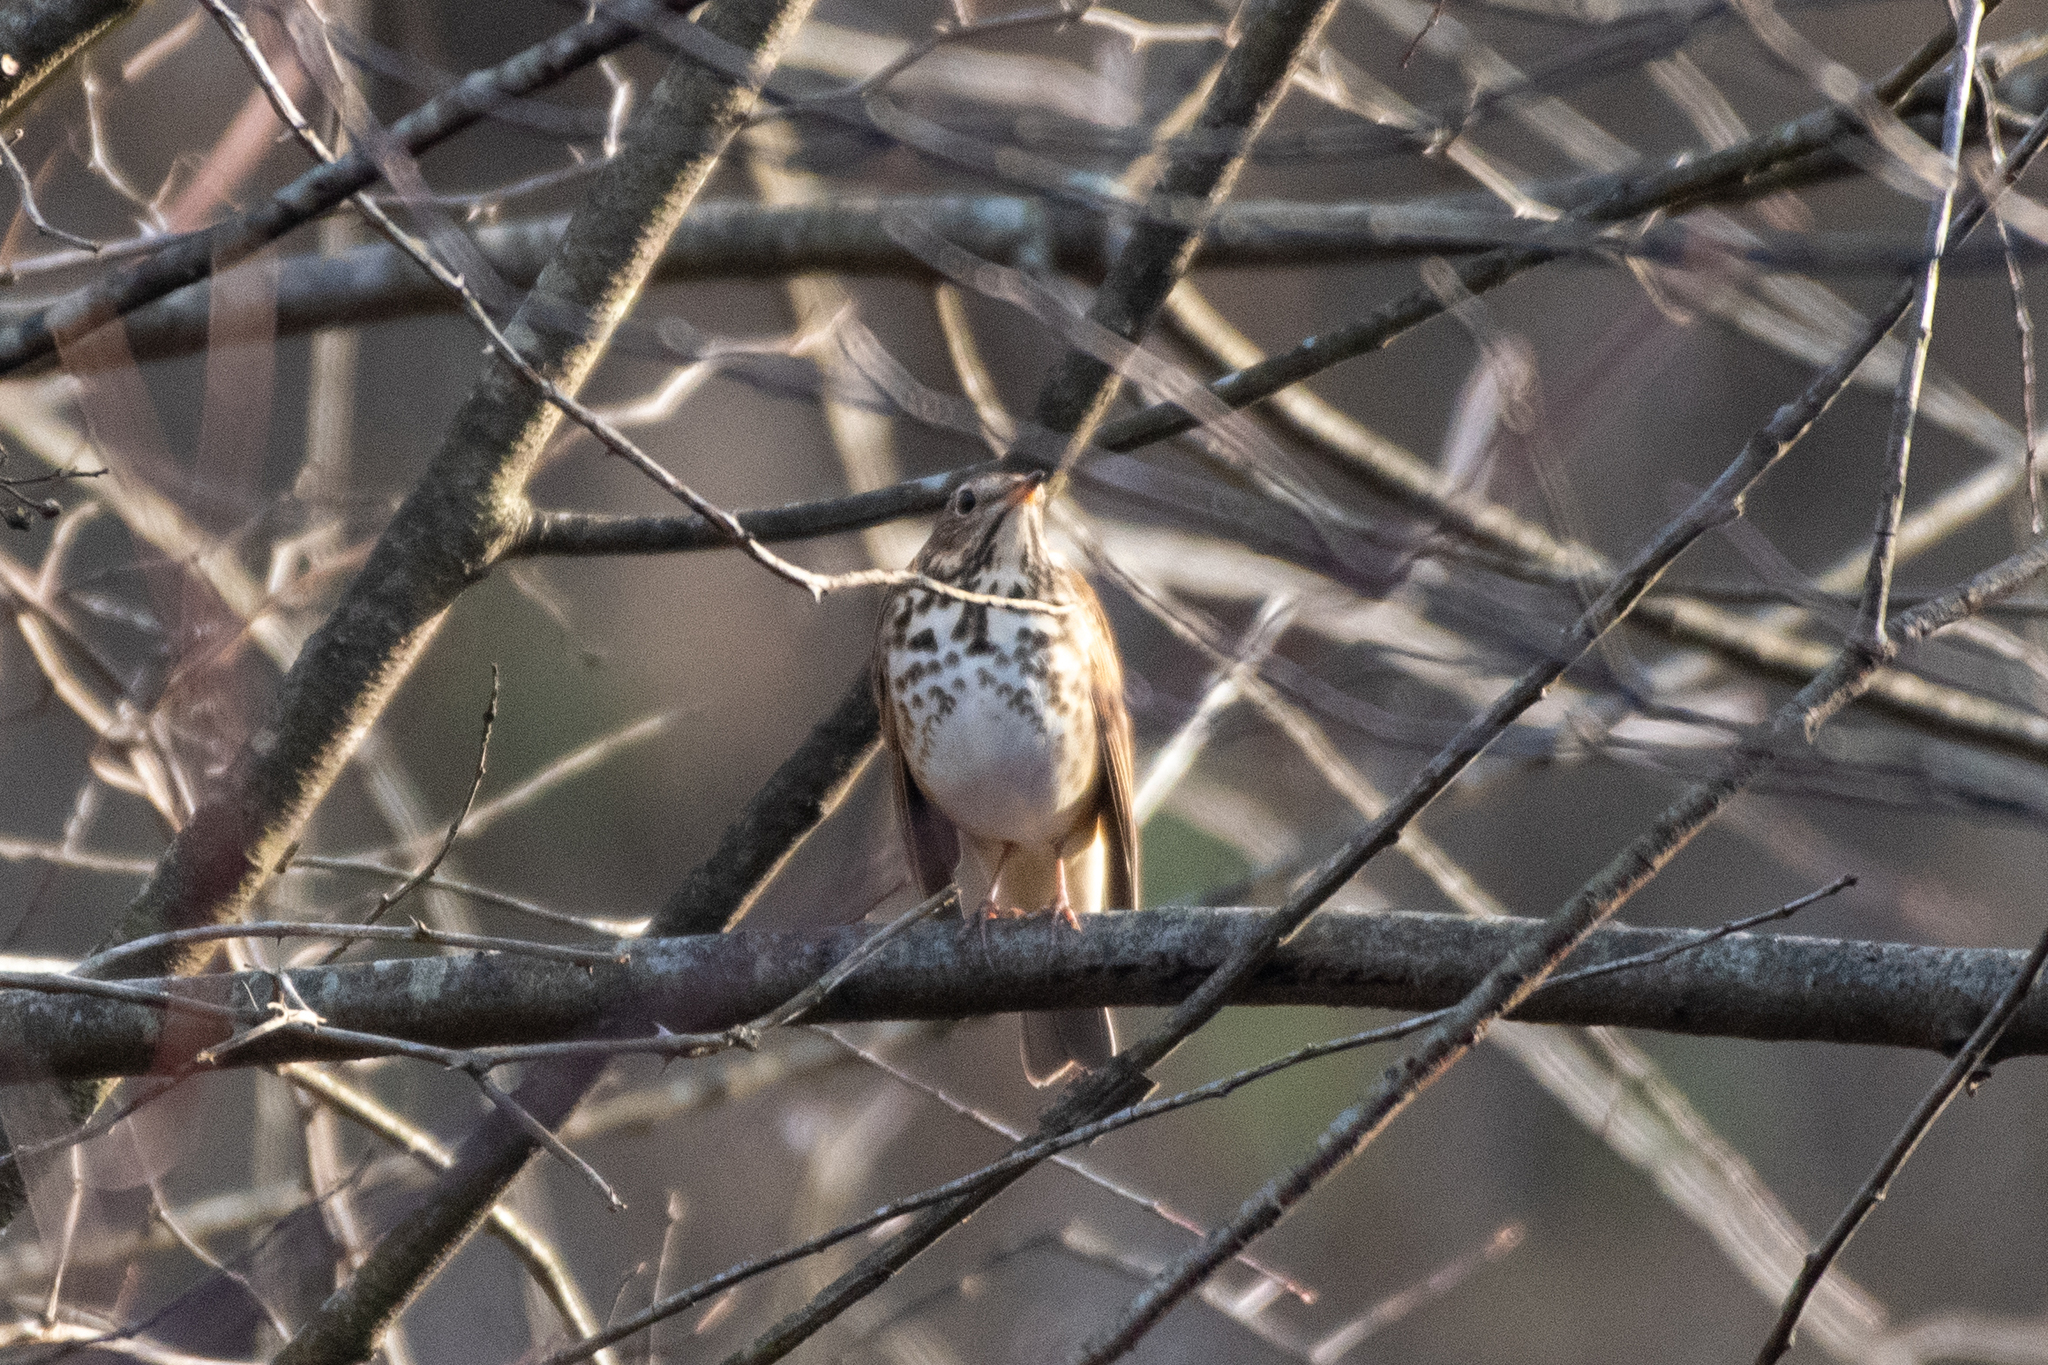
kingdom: Animalia
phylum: Chordata
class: Aves
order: Passeriformes
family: Turdidae
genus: Catharus
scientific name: Catharus guttatus
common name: Hermit thrush
